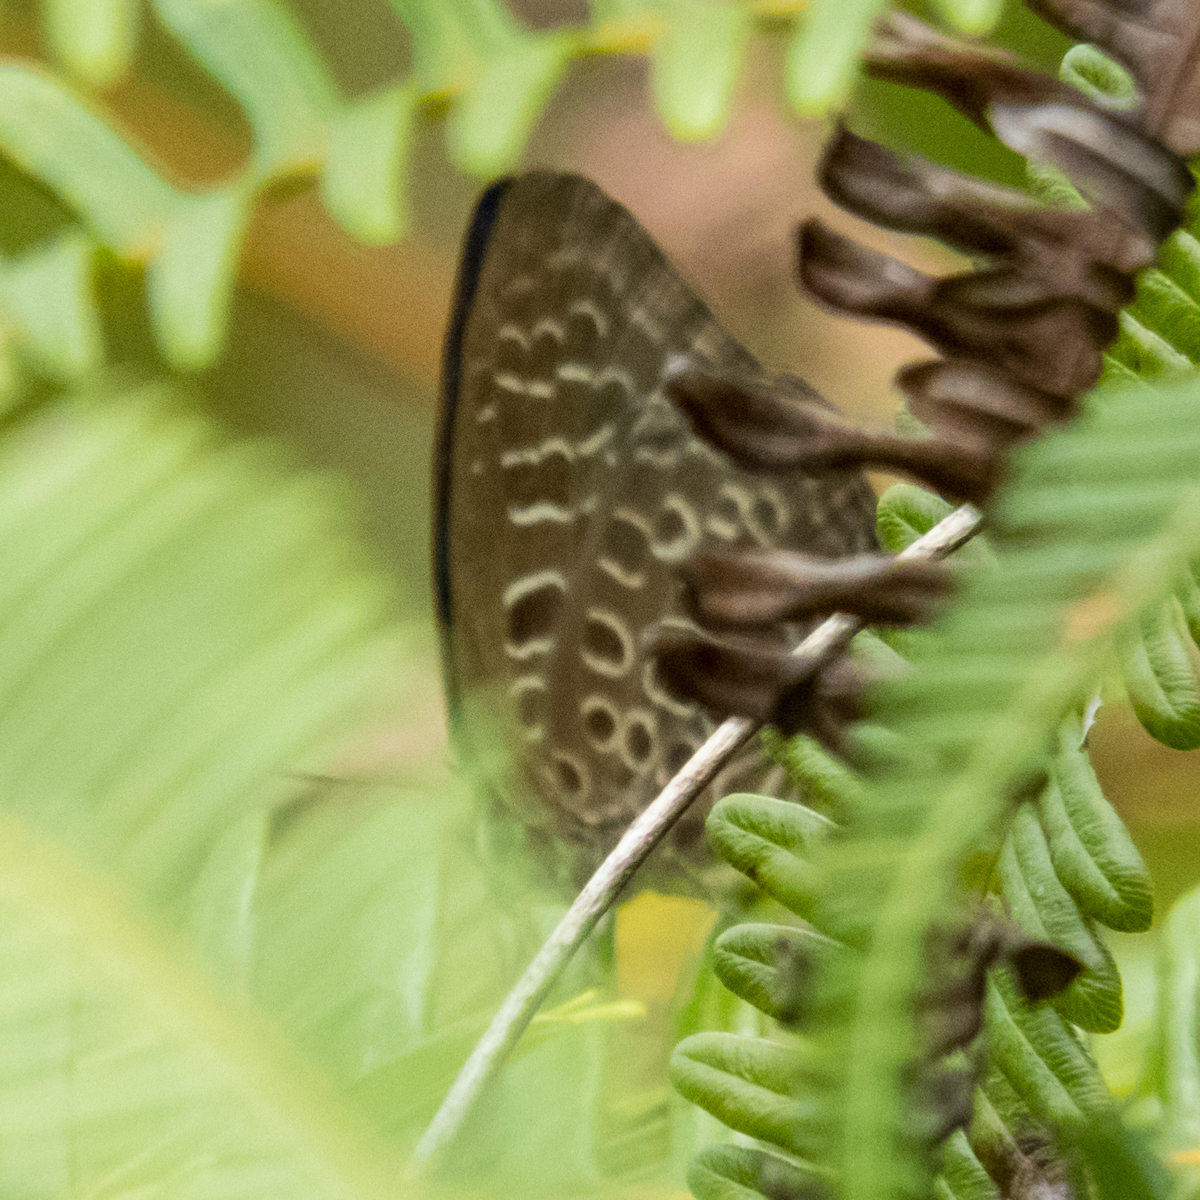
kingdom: Animalia
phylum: Arthropoda
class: Insecta
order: Lepidoptera
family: Lycaenidae
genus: Arhopala
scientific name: Arhopala camdana
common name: Moonstone oakblue
